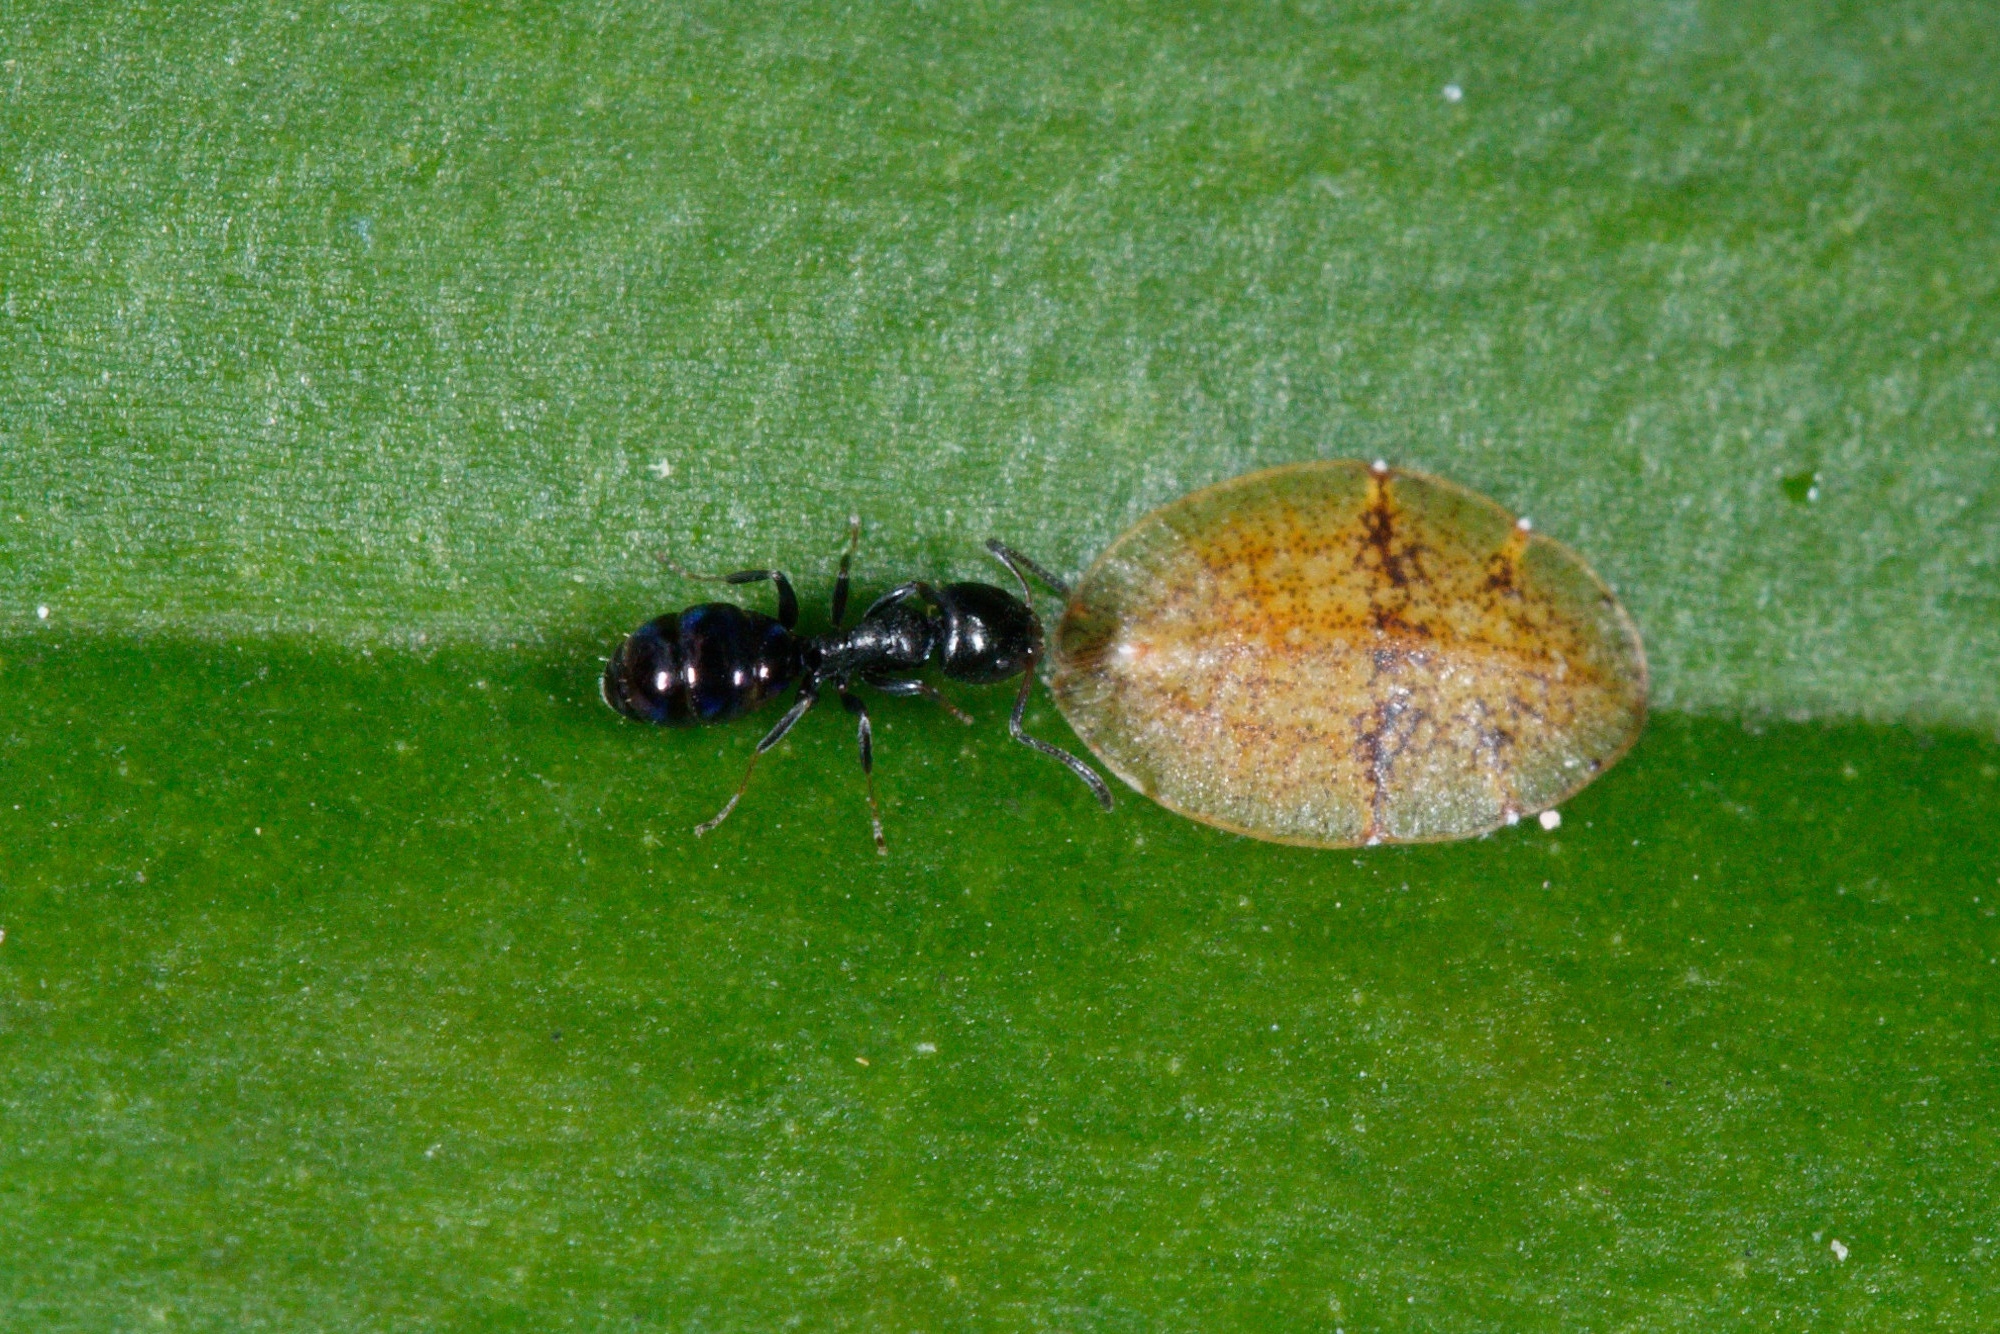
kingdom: Animalia
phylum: Arthropoda
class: Insecta
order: Hymenoptera
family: Formicidae
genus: Ochetellus
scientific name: Ochetellus glaber
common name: Ant
